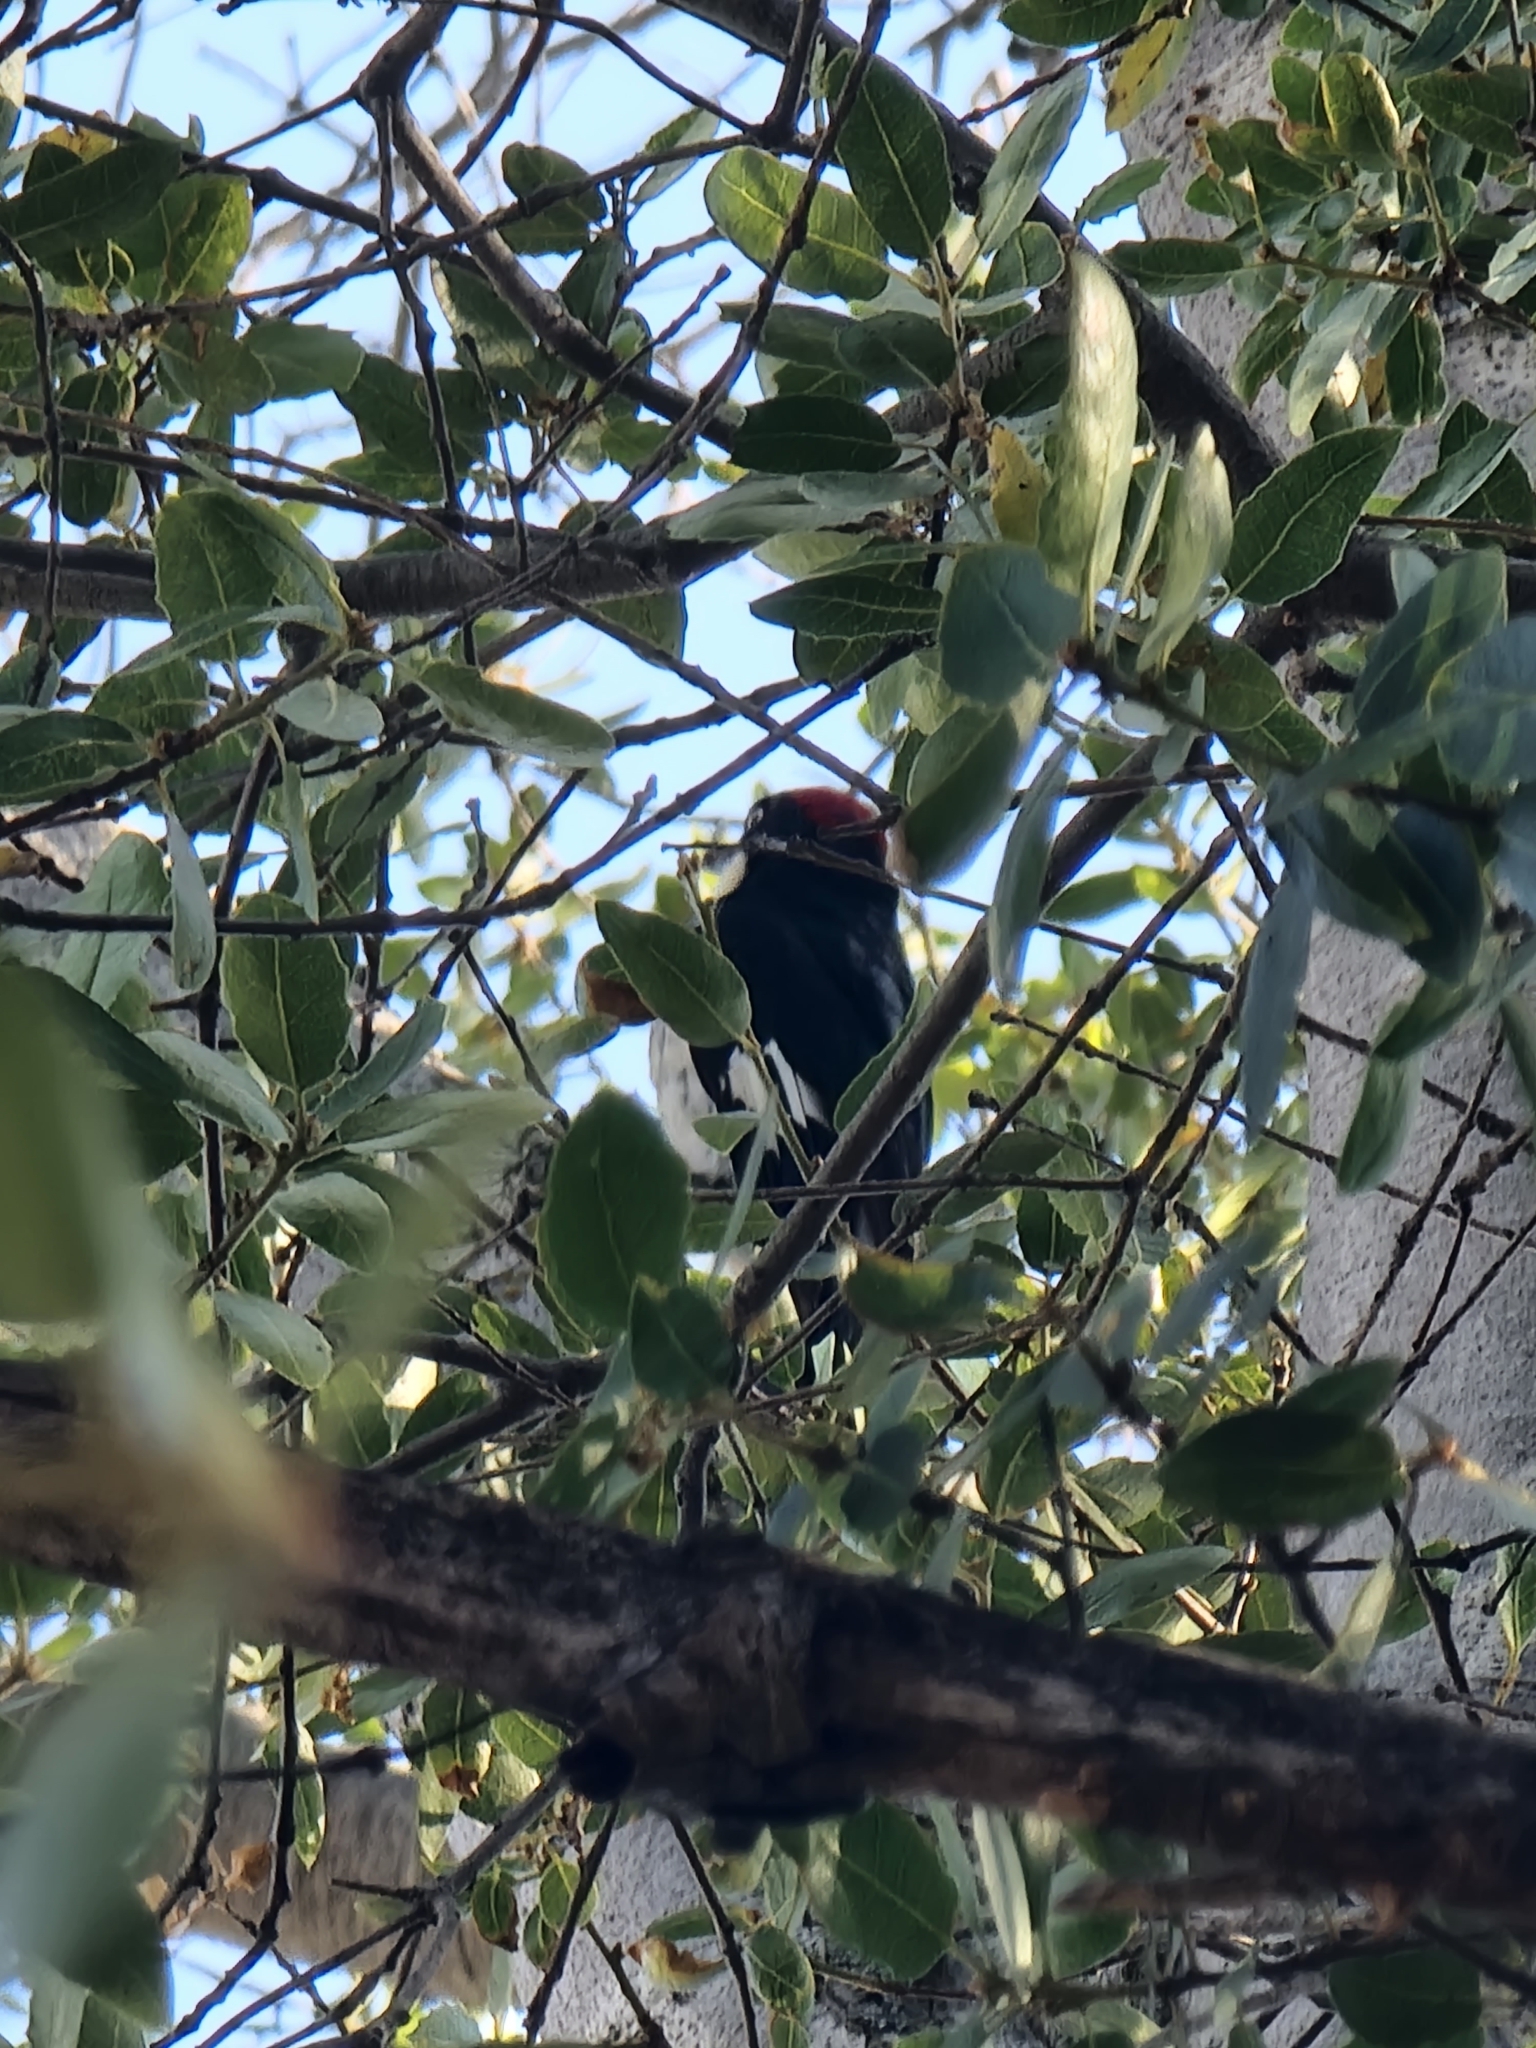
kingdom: Animalia
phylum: Chordata
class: Aves
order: Piciformes
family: Picidae
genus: Melanerpes
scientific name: Melanerpes formicivorus
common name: Acorn woodpecker
